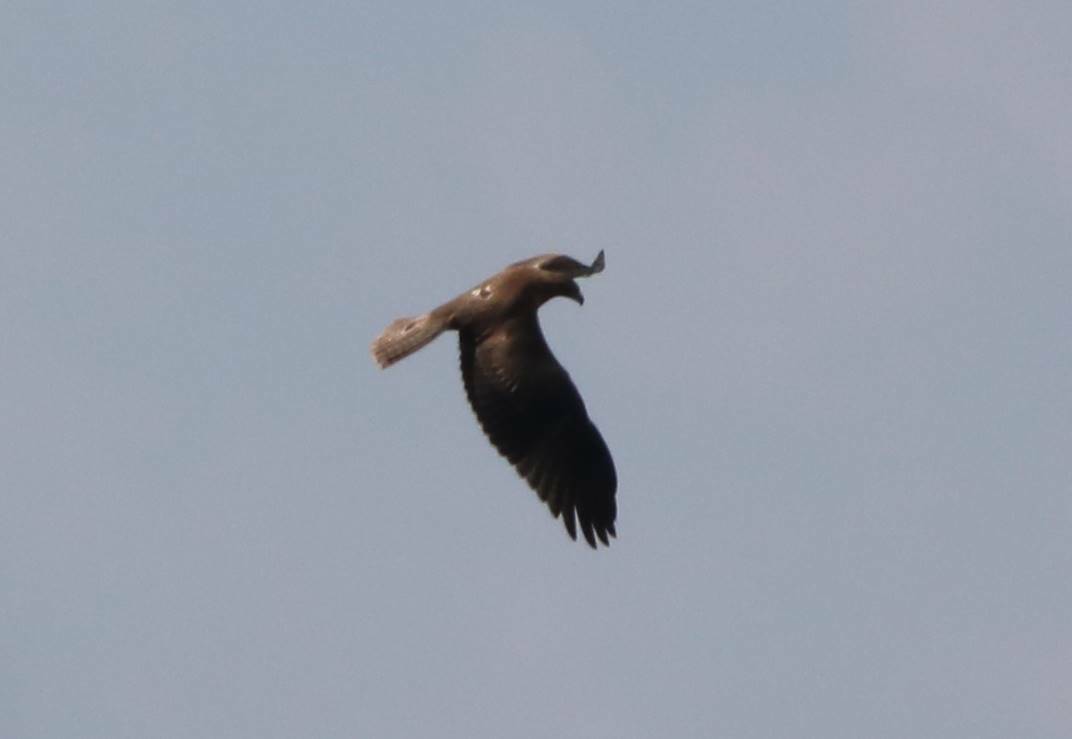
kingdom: Animalia
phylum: Chordata
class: Aves
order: Accipitriformes
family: Accipitridae
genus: Aquila
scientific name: Aquila fasciata
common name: Bonelli's eagle
